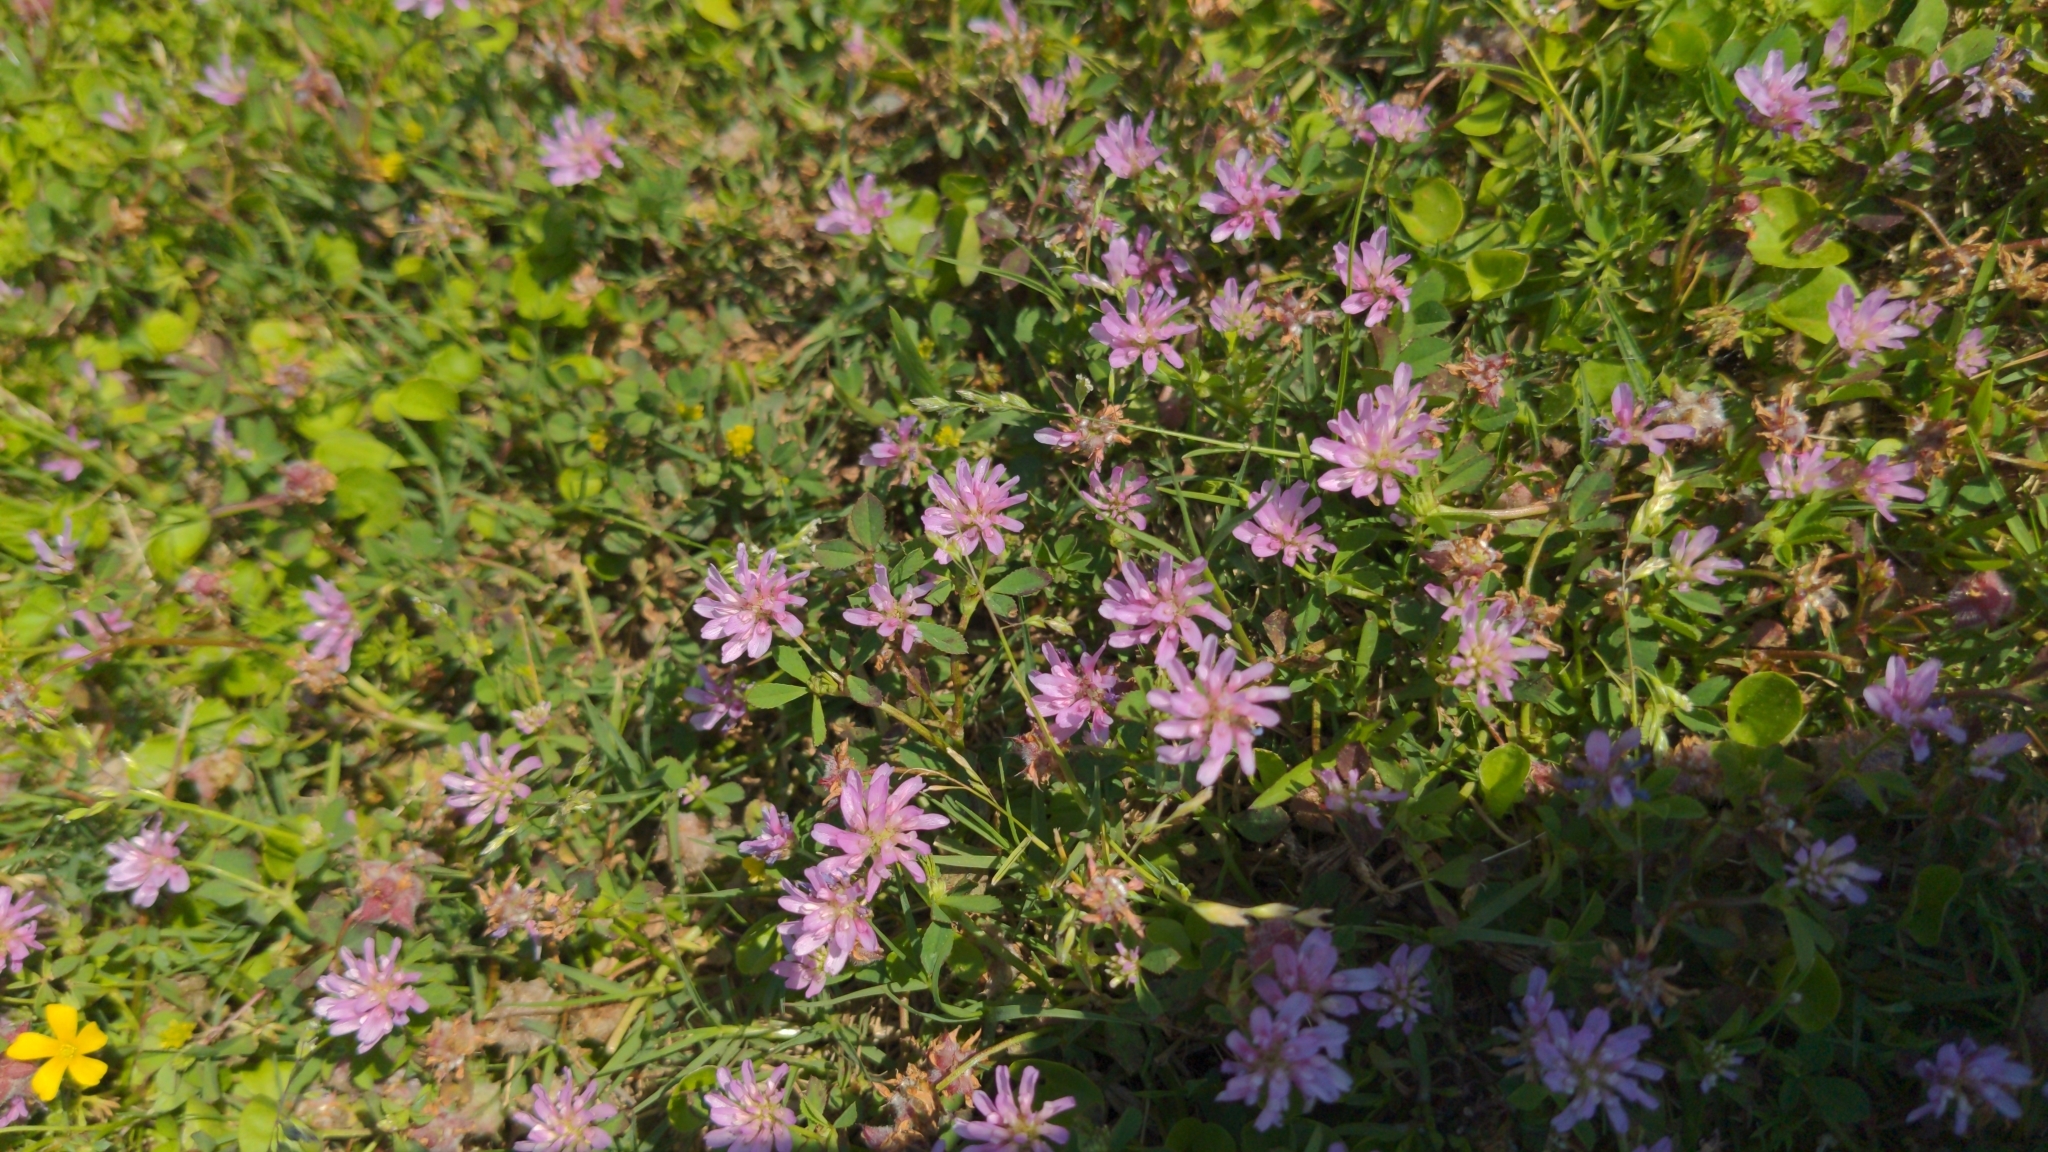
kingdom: Plantae
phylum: Tracheophyta
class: Magnoliopsida
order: Fabales
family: Fabaceae
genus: Trifolium
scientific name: Trifolium resupinatum
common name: Reversed clover
